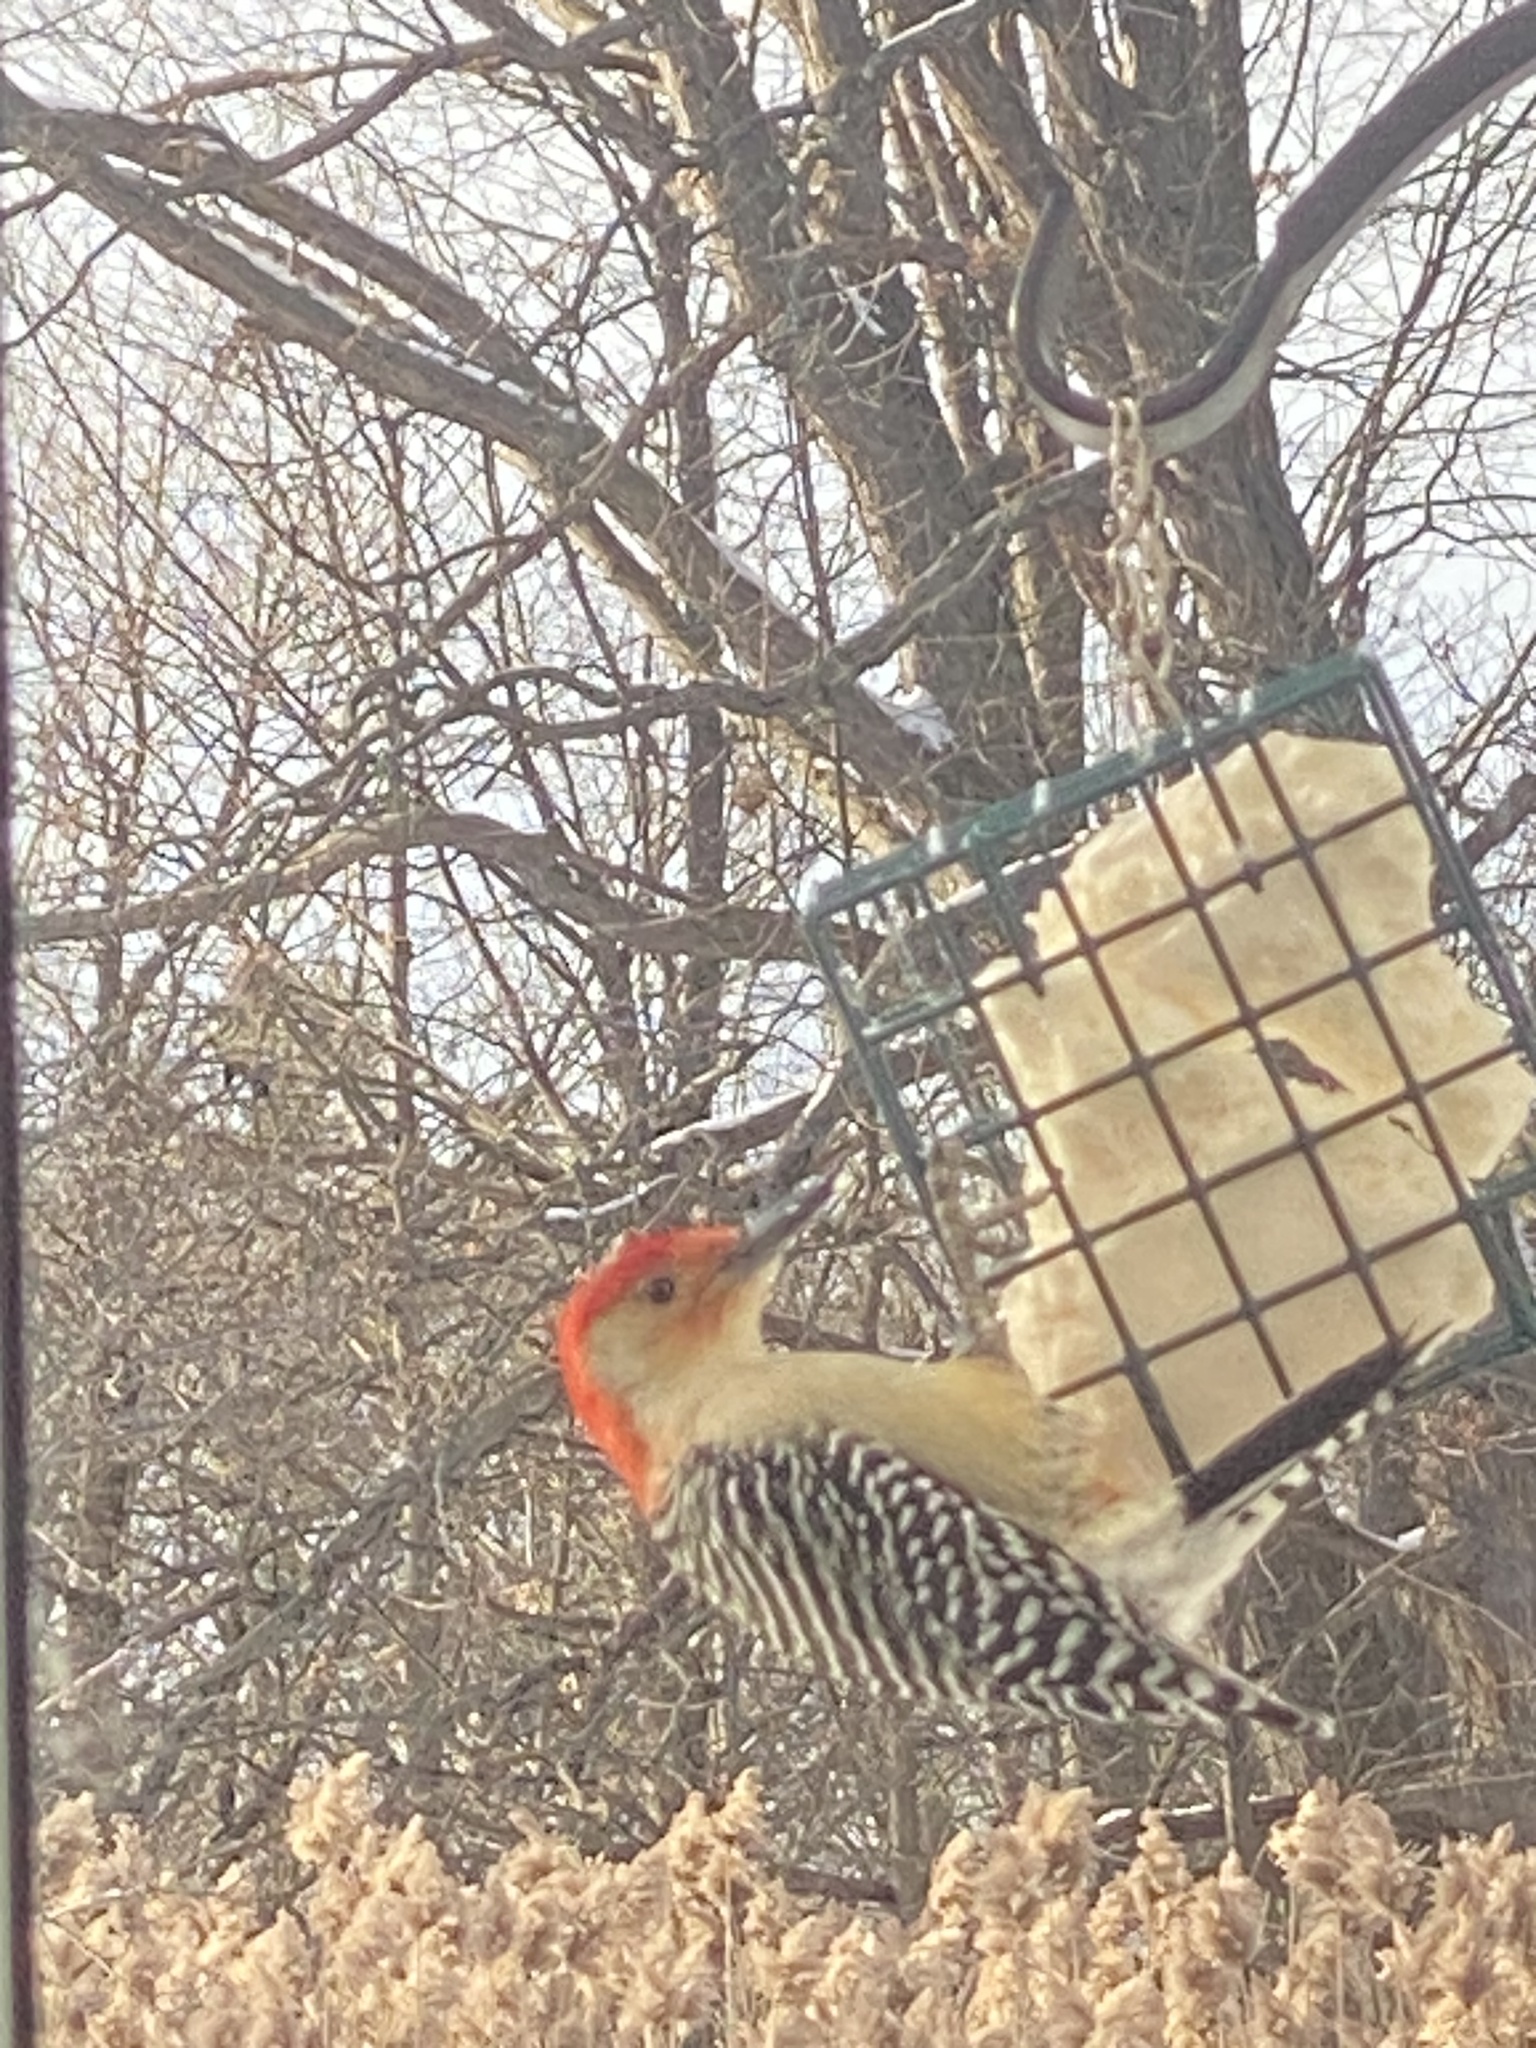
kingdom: Animalia
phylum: Chordata
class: Aves
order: Piciformes
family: Picidae
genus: Melanerpes
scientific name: Melanerpes carolinus
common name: Red-bellied woodpecker
